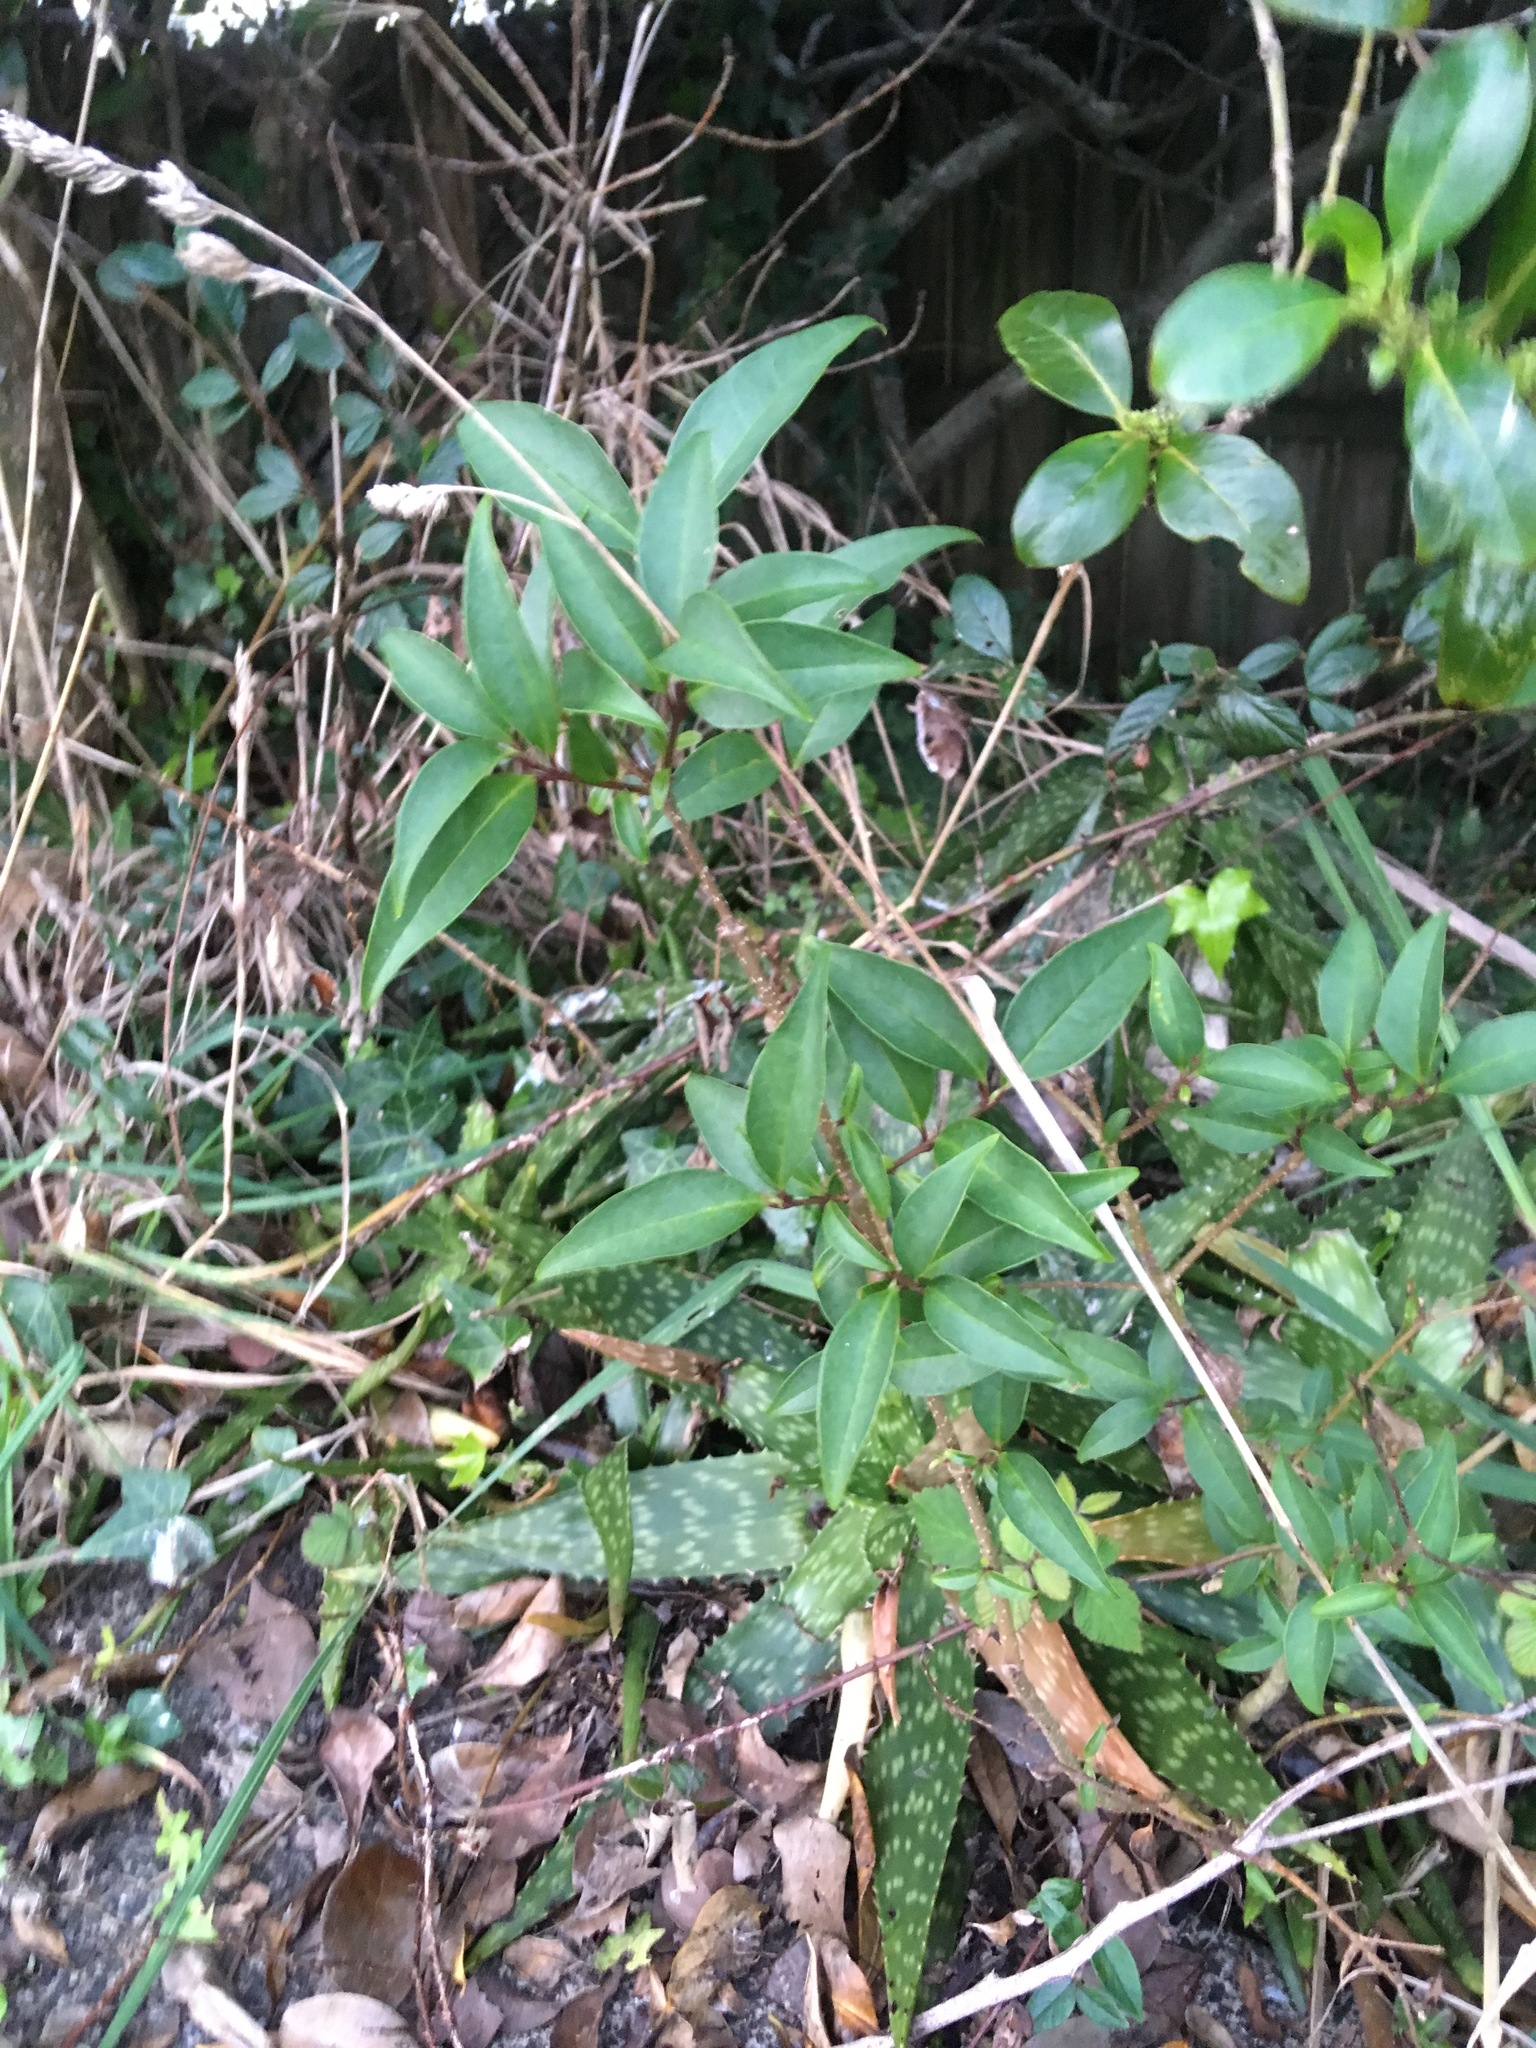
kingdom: Plantae
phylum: Tracheophyta
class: Magnoliopsida
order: Lamiales
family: Oleaceae
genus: Ligustrum
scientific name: Ligustrum lucidum
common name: Glossy privet
